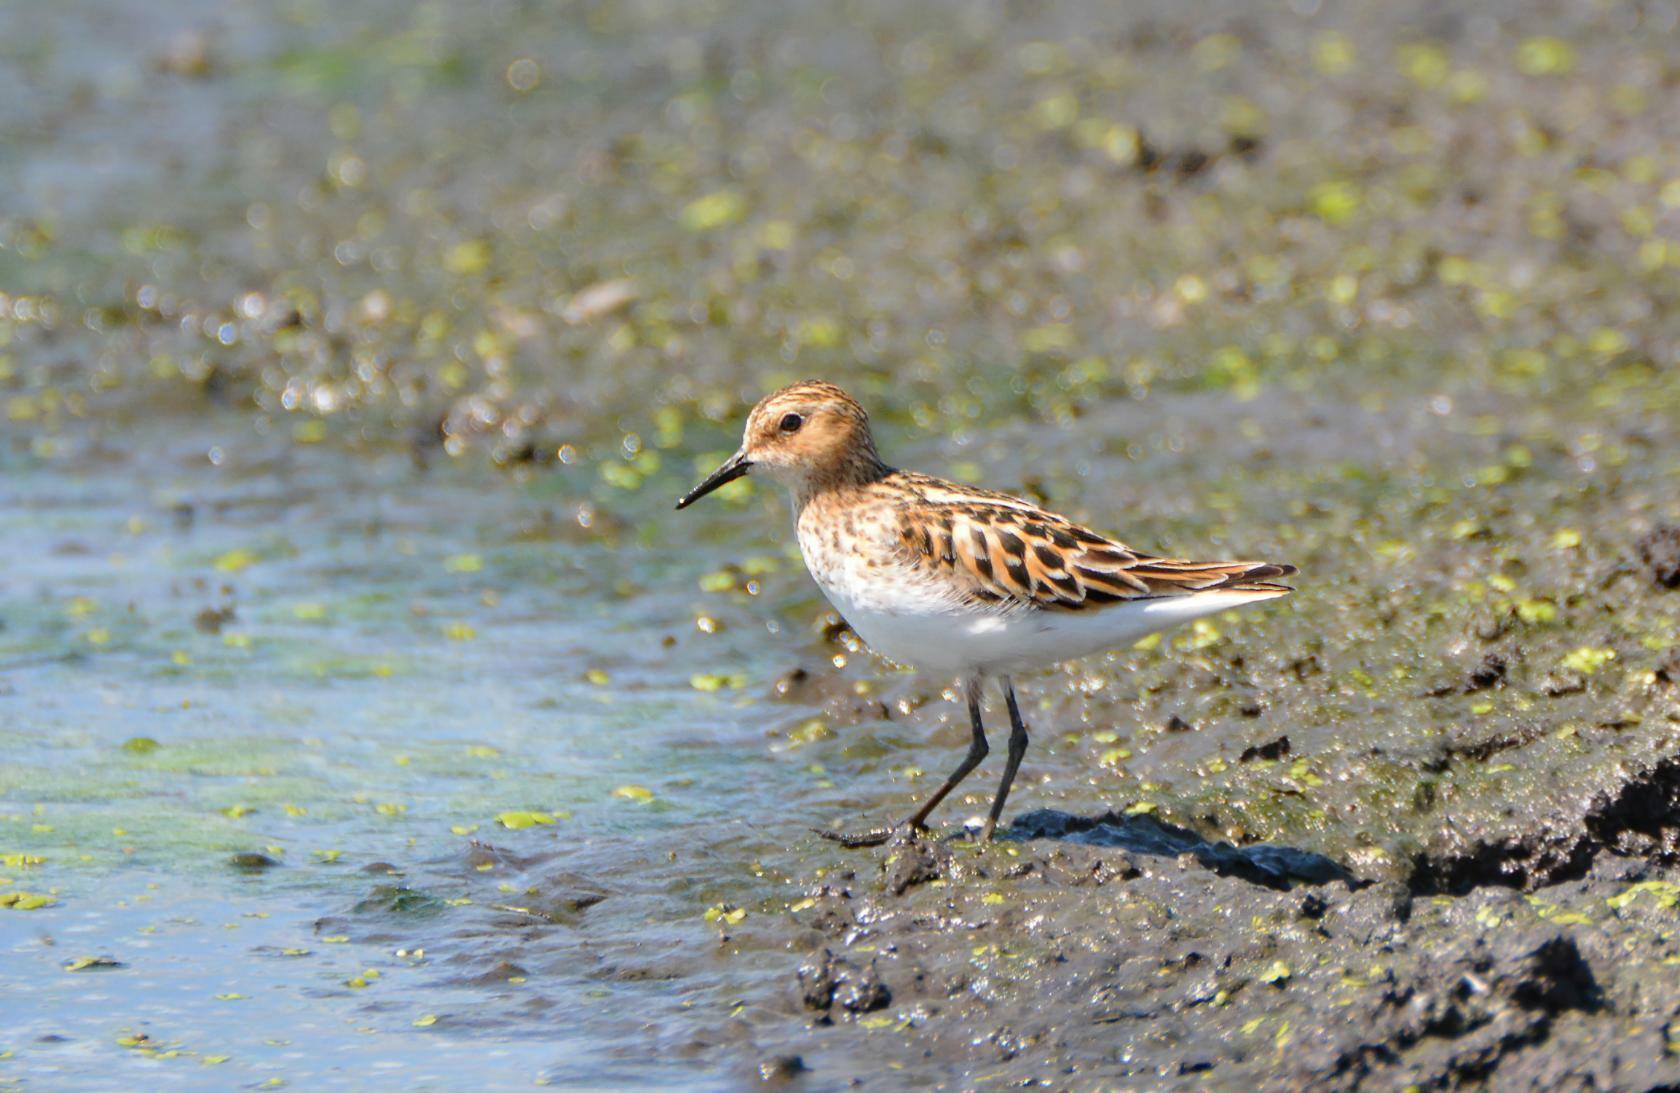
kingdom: Animalia
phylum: Chordata
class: Aves
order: Charadriiformes
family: Scolopacidae
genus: Calidris
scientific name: Calidris minuta
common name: Little stint
